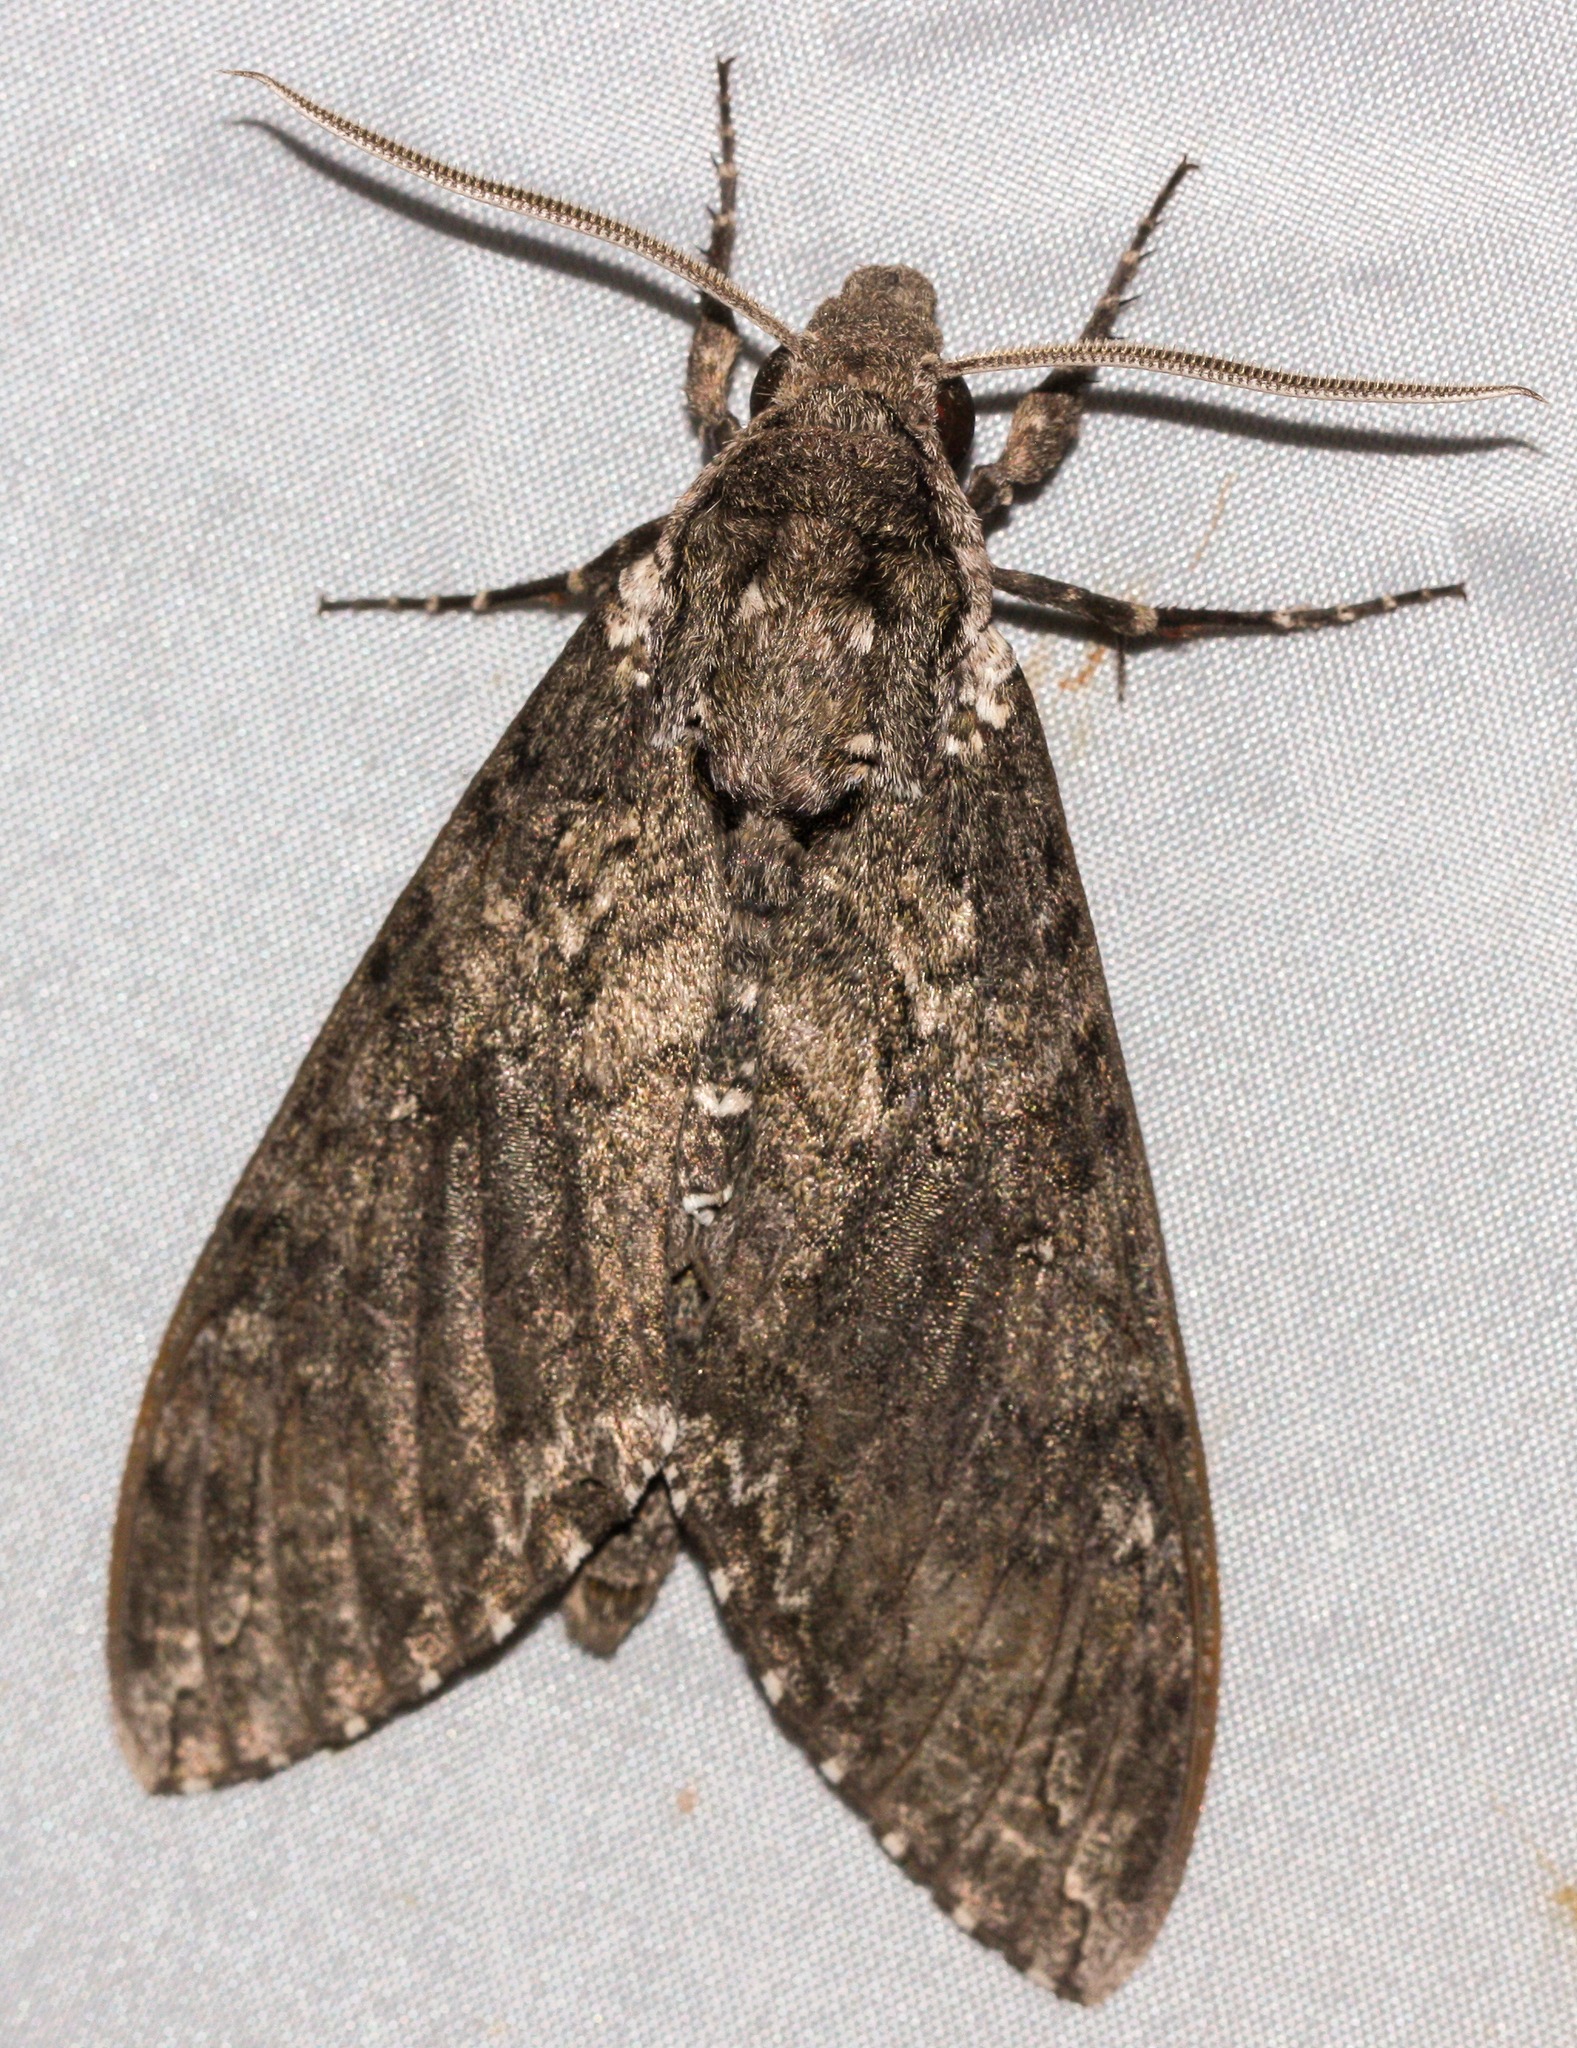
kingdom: Animalia
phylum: Arthropoda
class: Insecta
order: Lepidoptera
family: Sphingidae
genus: Manduca
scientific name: Manduca sexta
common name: Carolina sphinx
